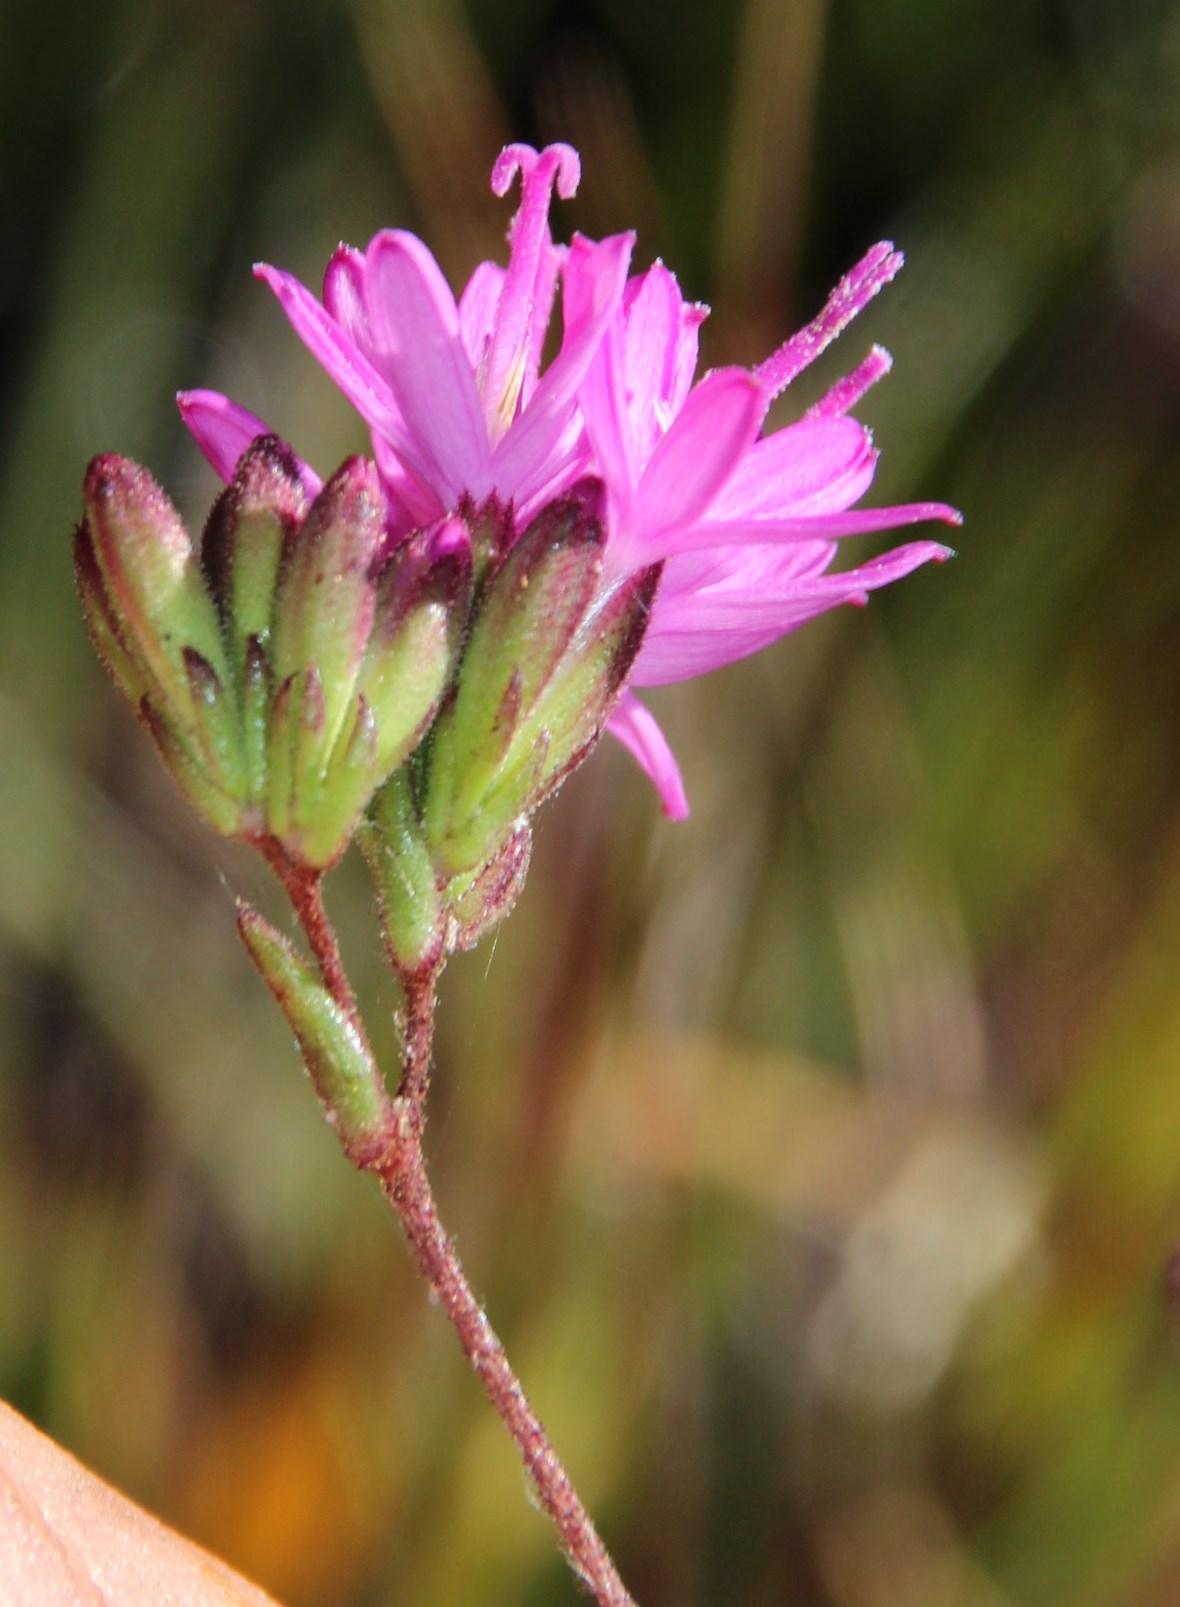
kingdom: Plantae
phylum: Tracheophyta
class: Magnoliopsida
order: Asterales
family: Asteraceae
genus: Corymbium
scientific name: Corymbium africanum
